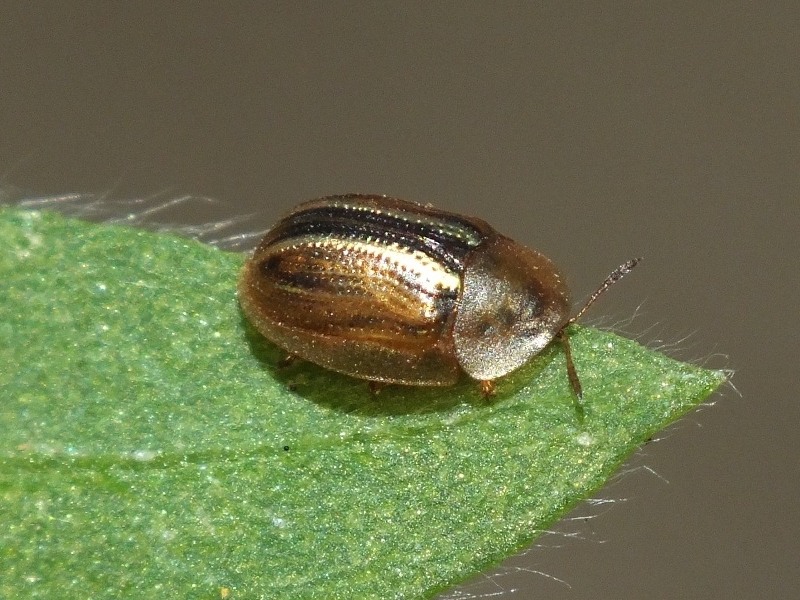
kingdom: Animalia
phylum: Arthropoda
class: Insecta
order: Coleoptera
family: Chrysomelidae
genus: Cassida
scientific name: Cassida nobilis
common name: Leaf beetle
